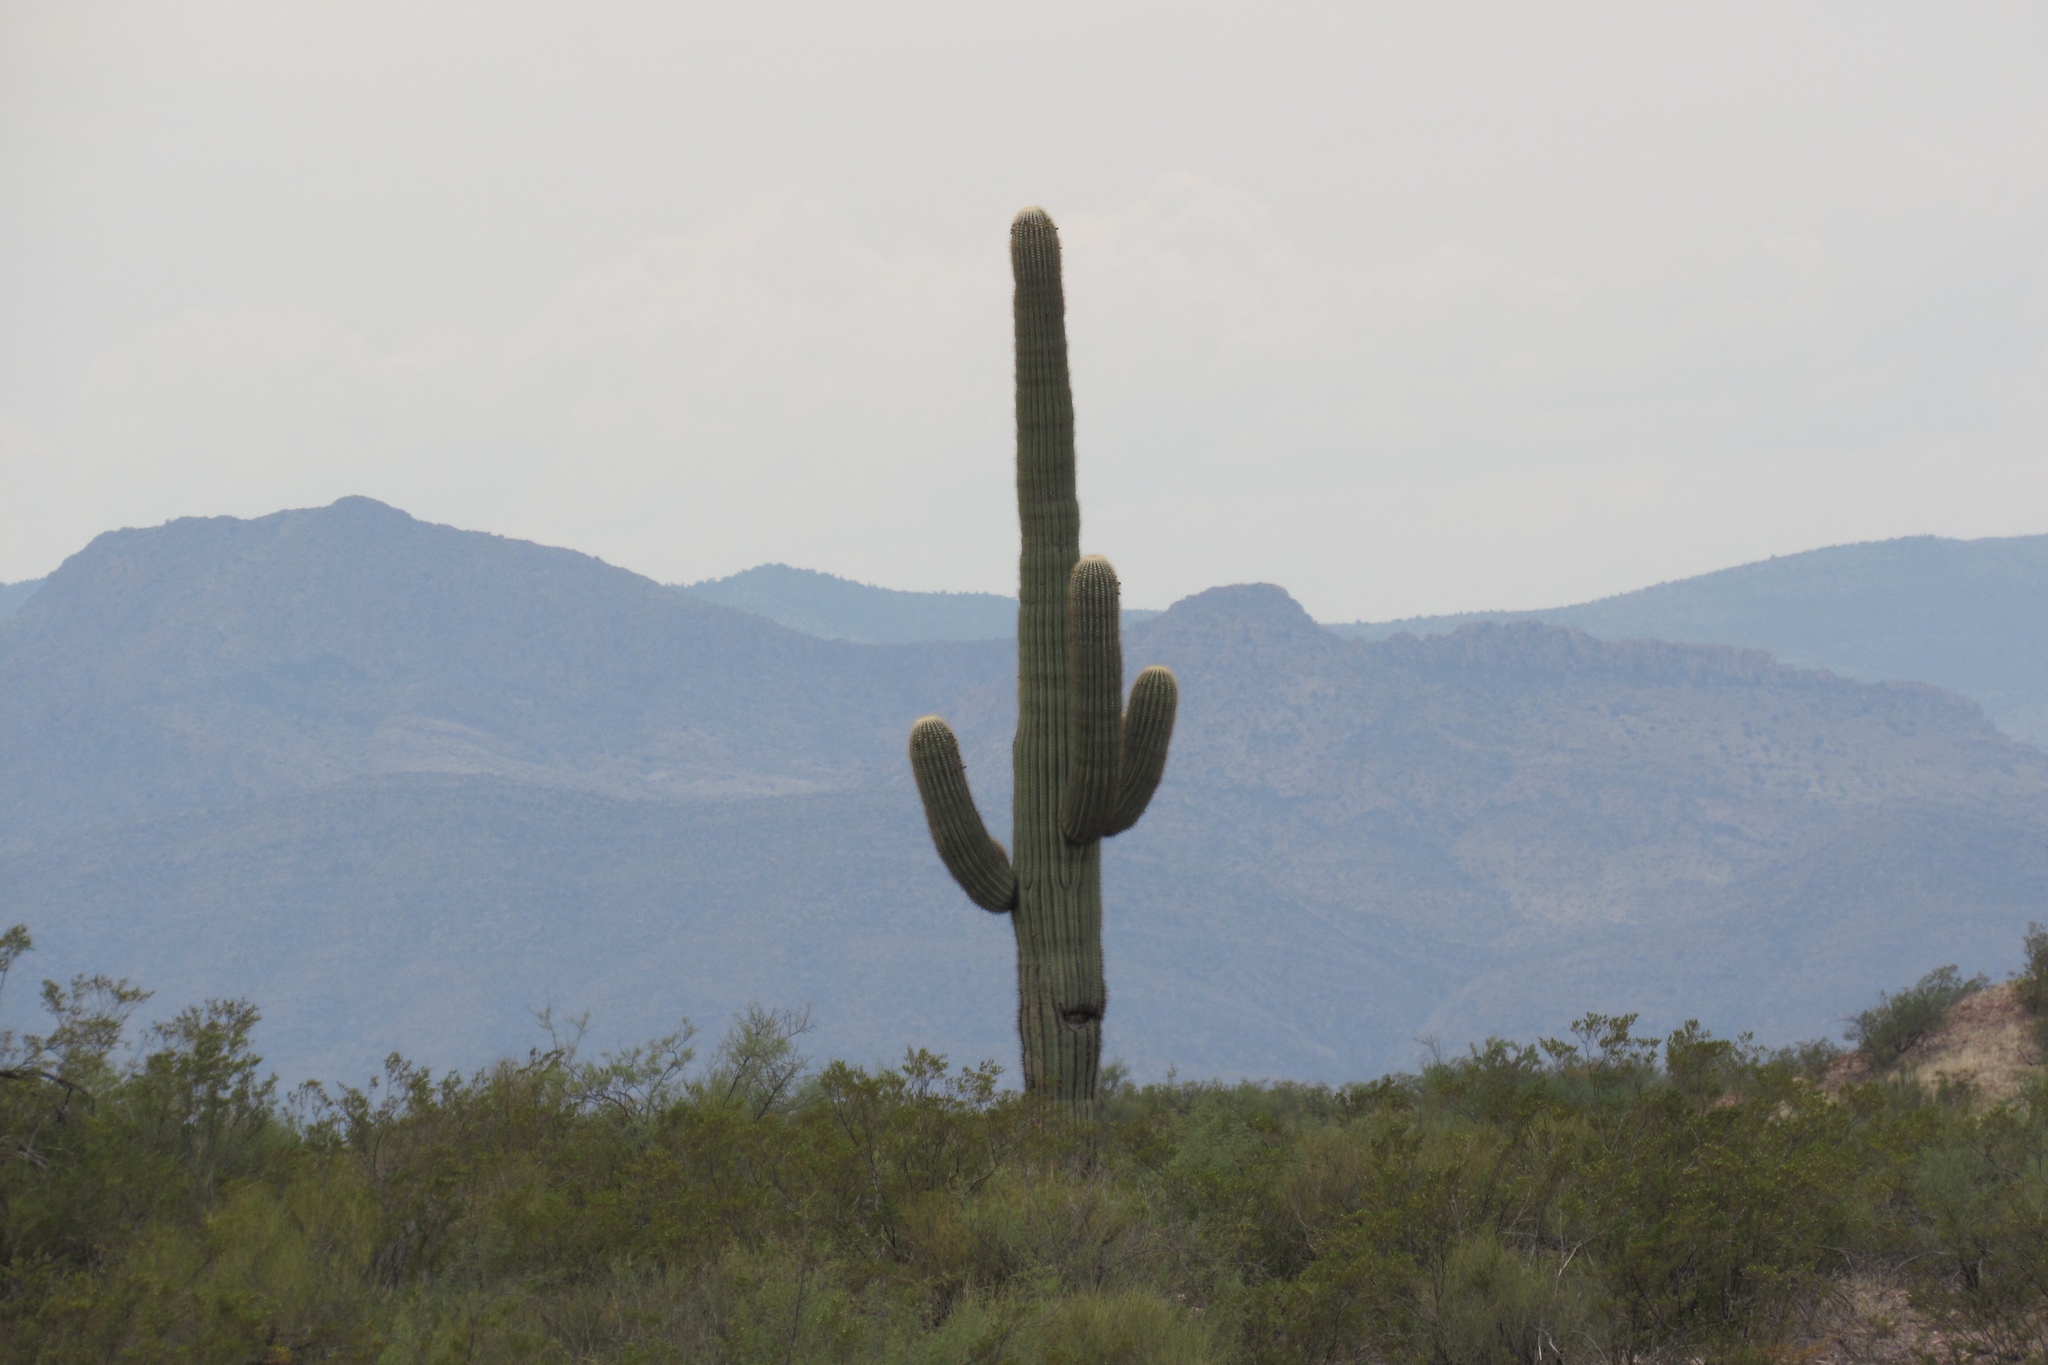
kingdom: Plantae
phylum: Tracheophyta
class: Magnoliopsida
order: Caryophyllales
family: Cactaceae
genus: Carnegiea
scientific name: Carnegiea gigantea
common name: Saguaro
